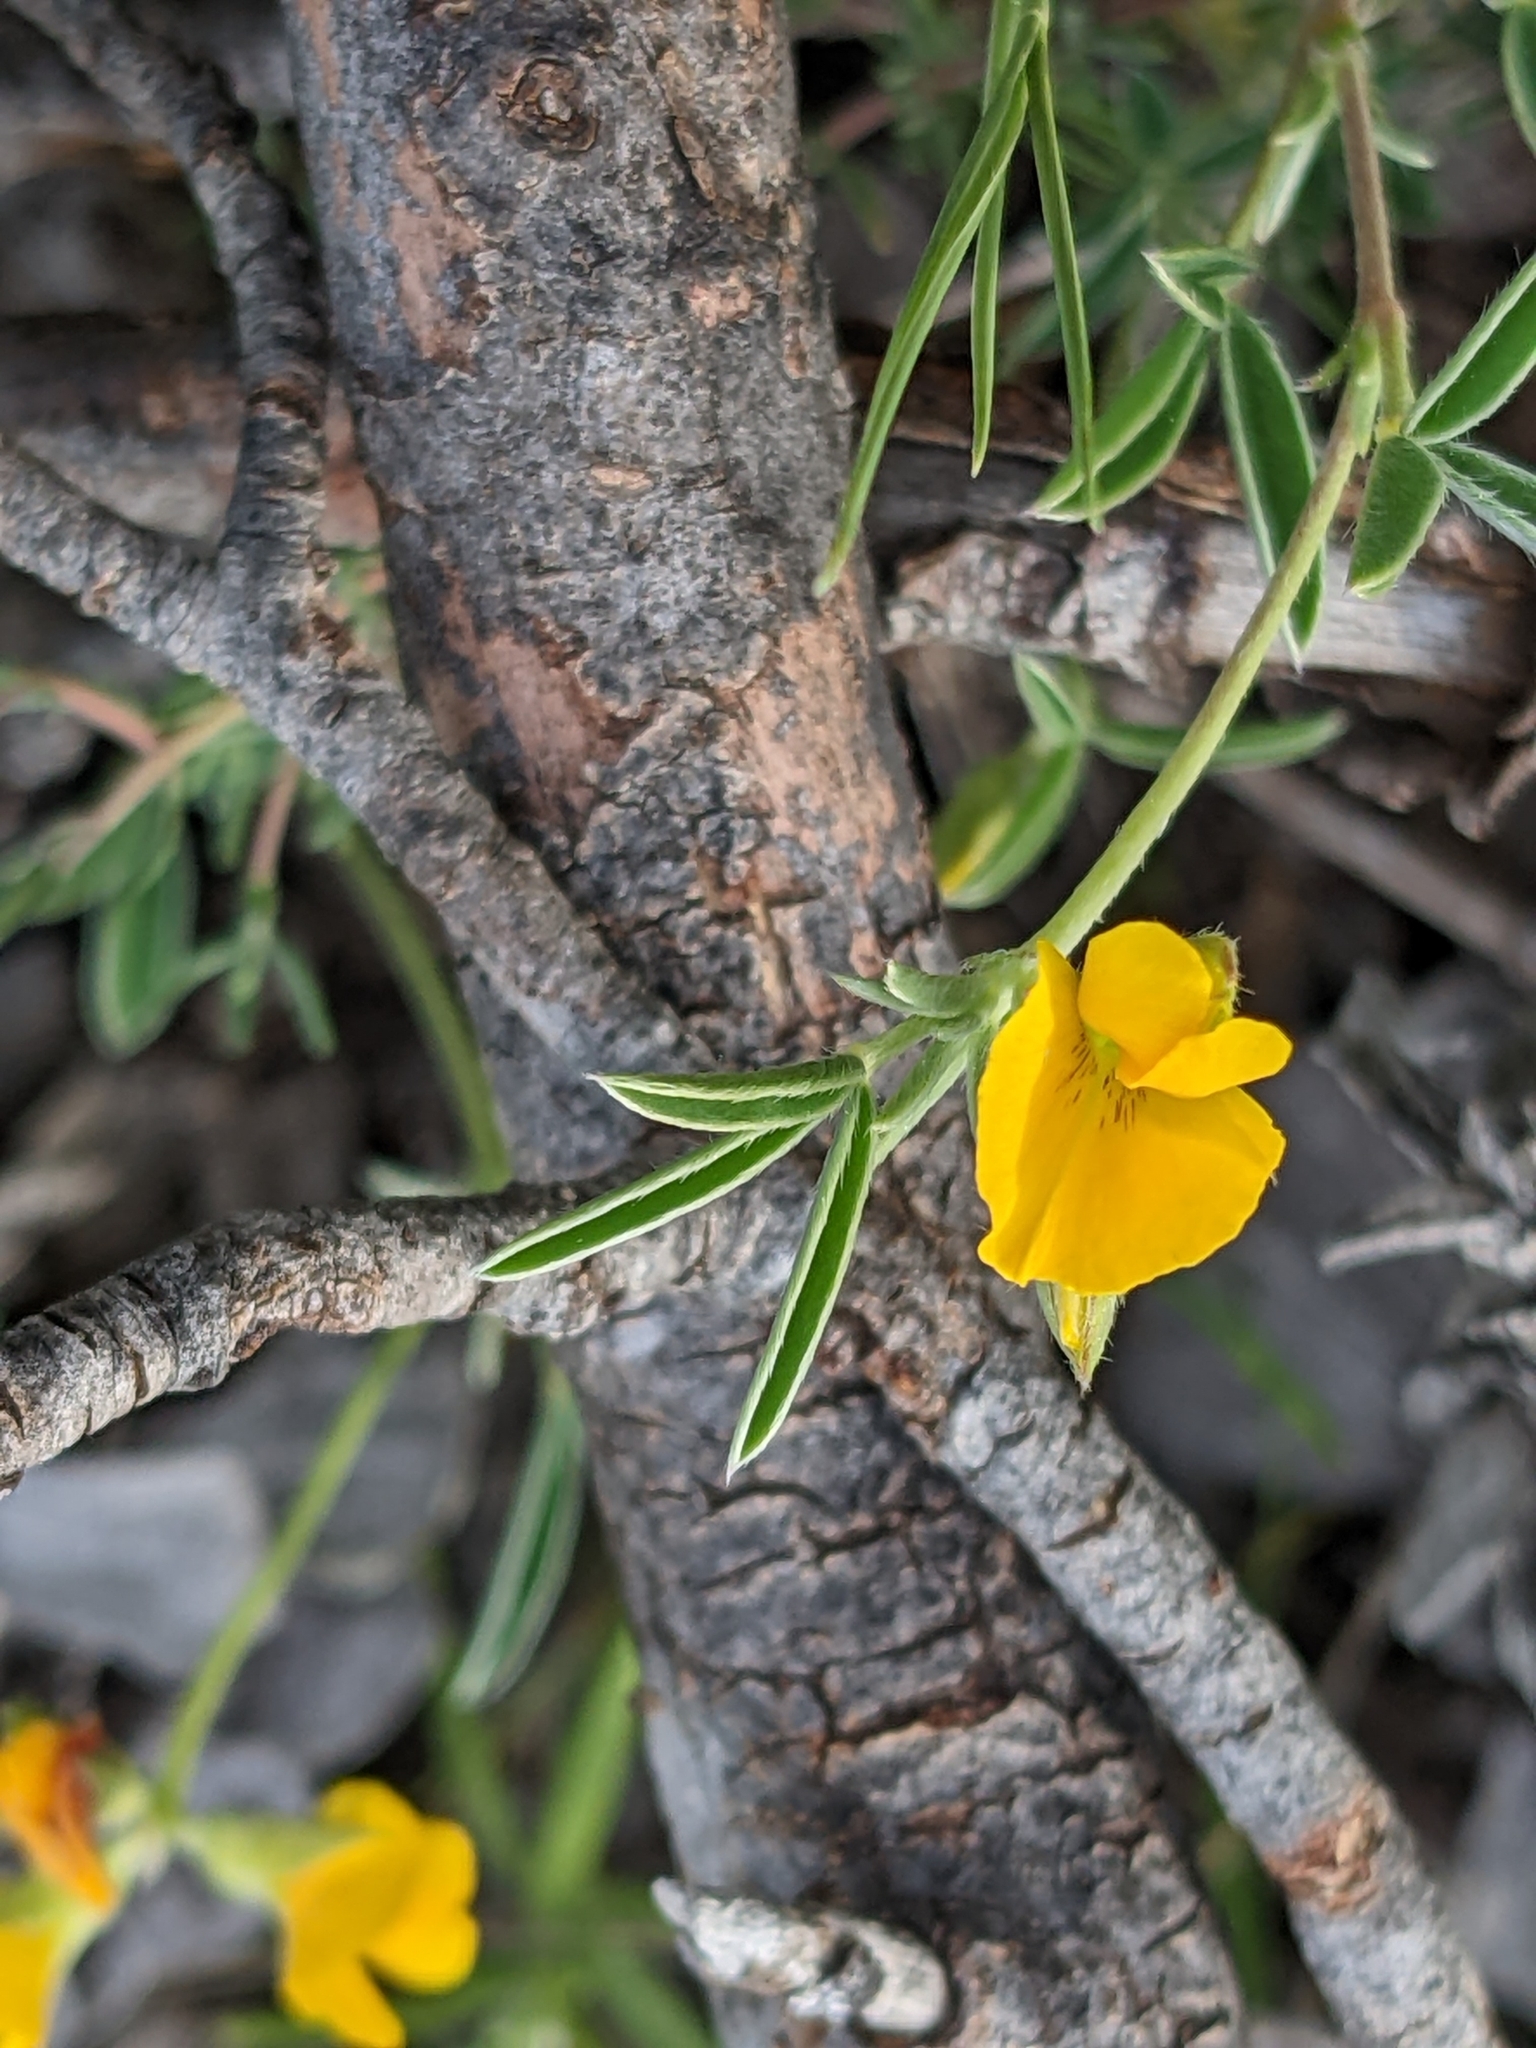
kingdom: Plantae
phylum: Tracheophyta
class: Magnoliopsida
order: Fabales
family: Fabaceae
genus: Argyrolobium
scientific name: Argyrolobium zanonii
